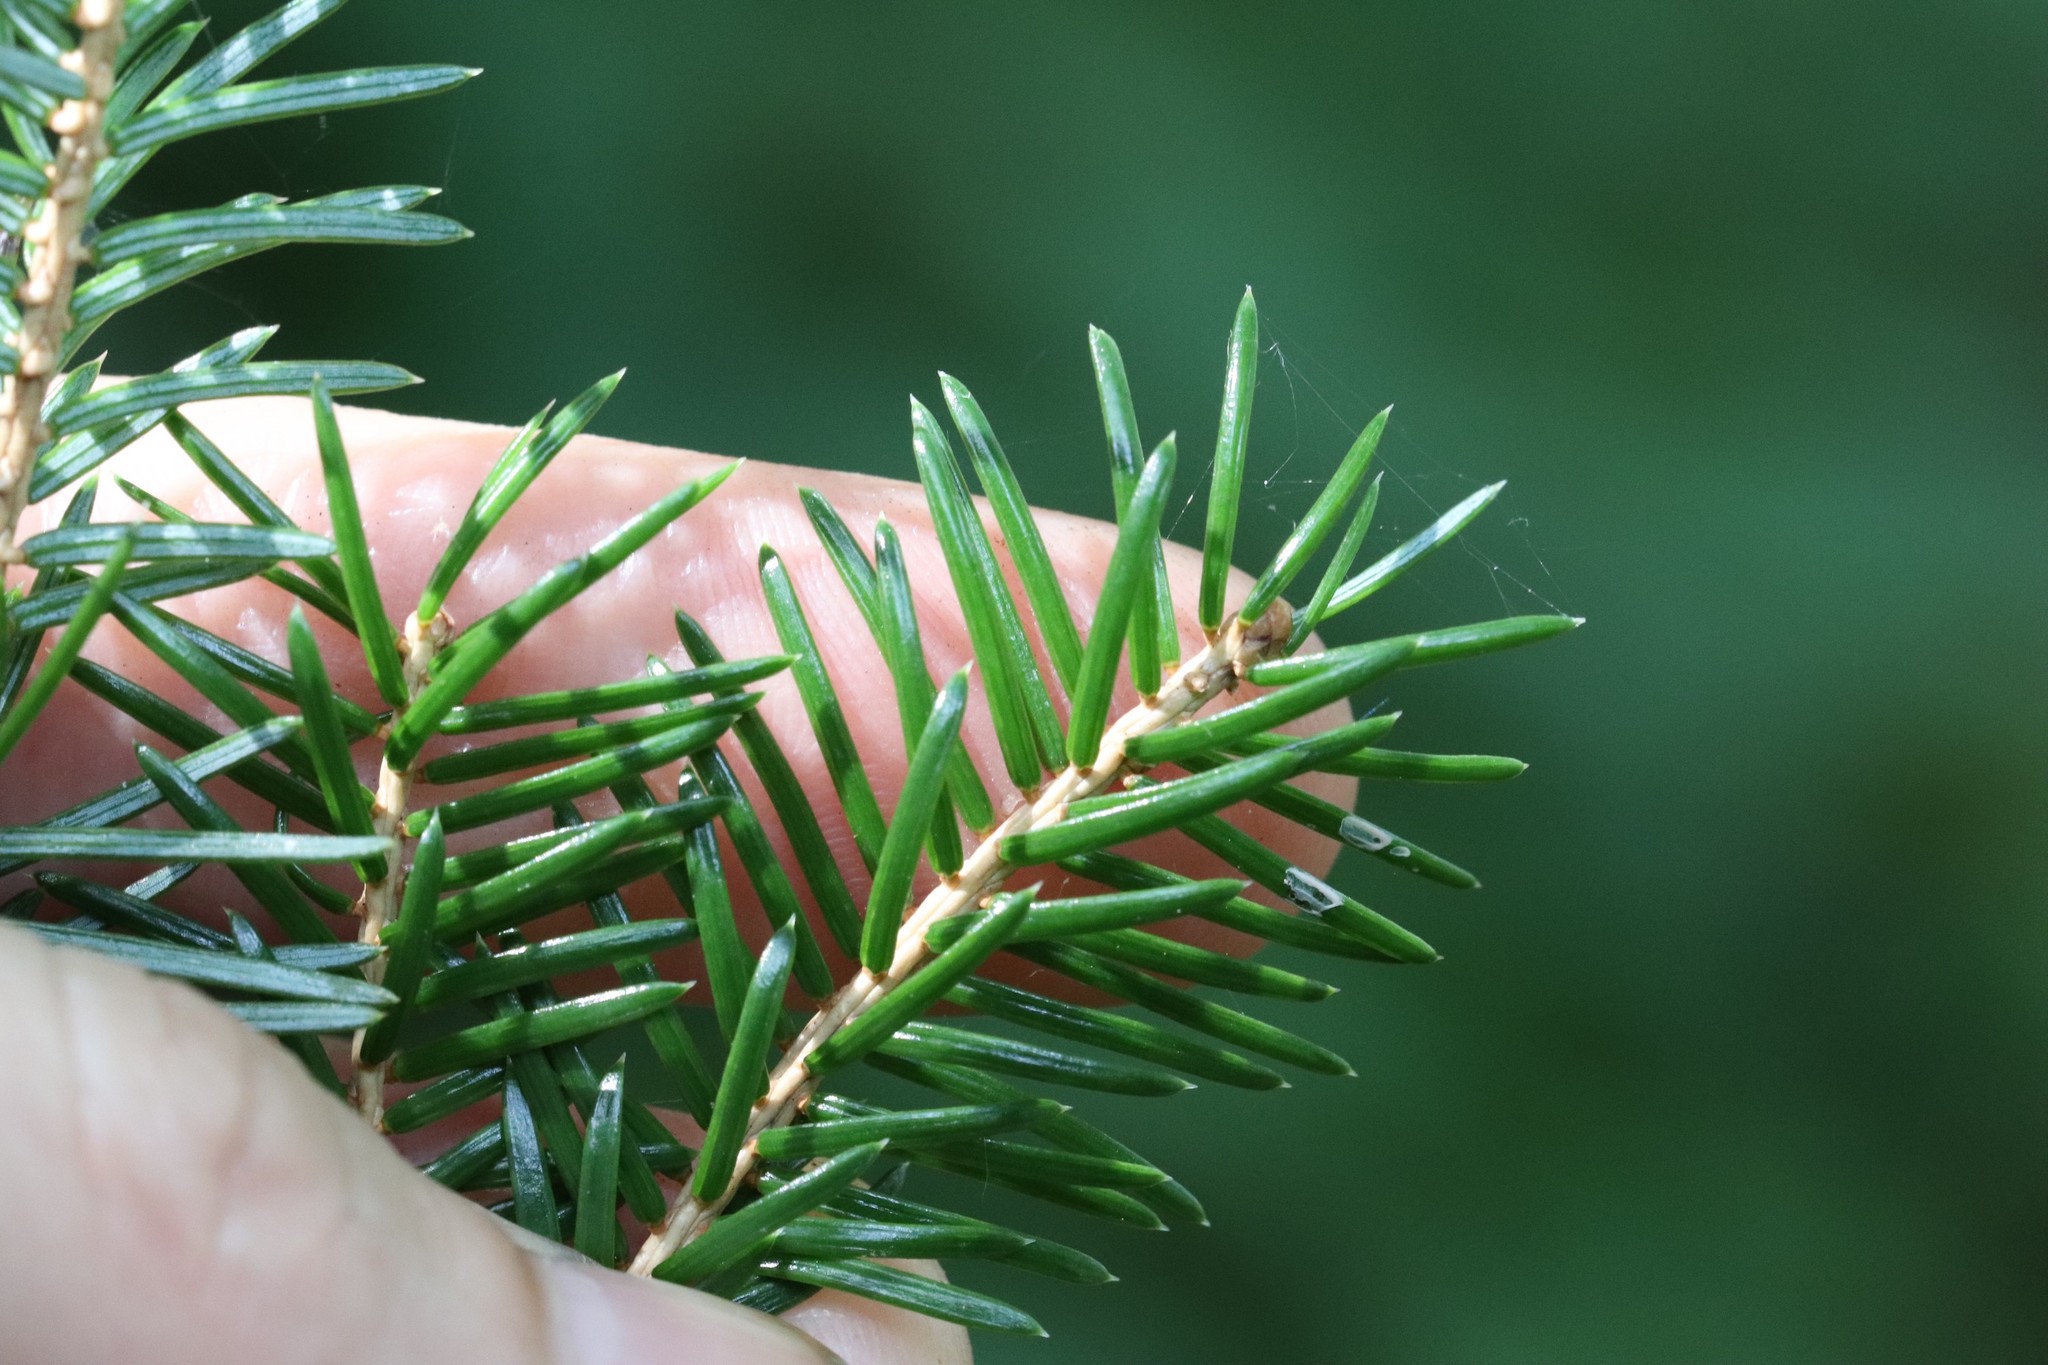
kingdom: Plantae
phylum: Tracheophyta
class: Pinopsida
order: Pinales
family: Pinaceae
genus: Picea
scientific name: Picea jezoensis
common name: Yeddo spruce
